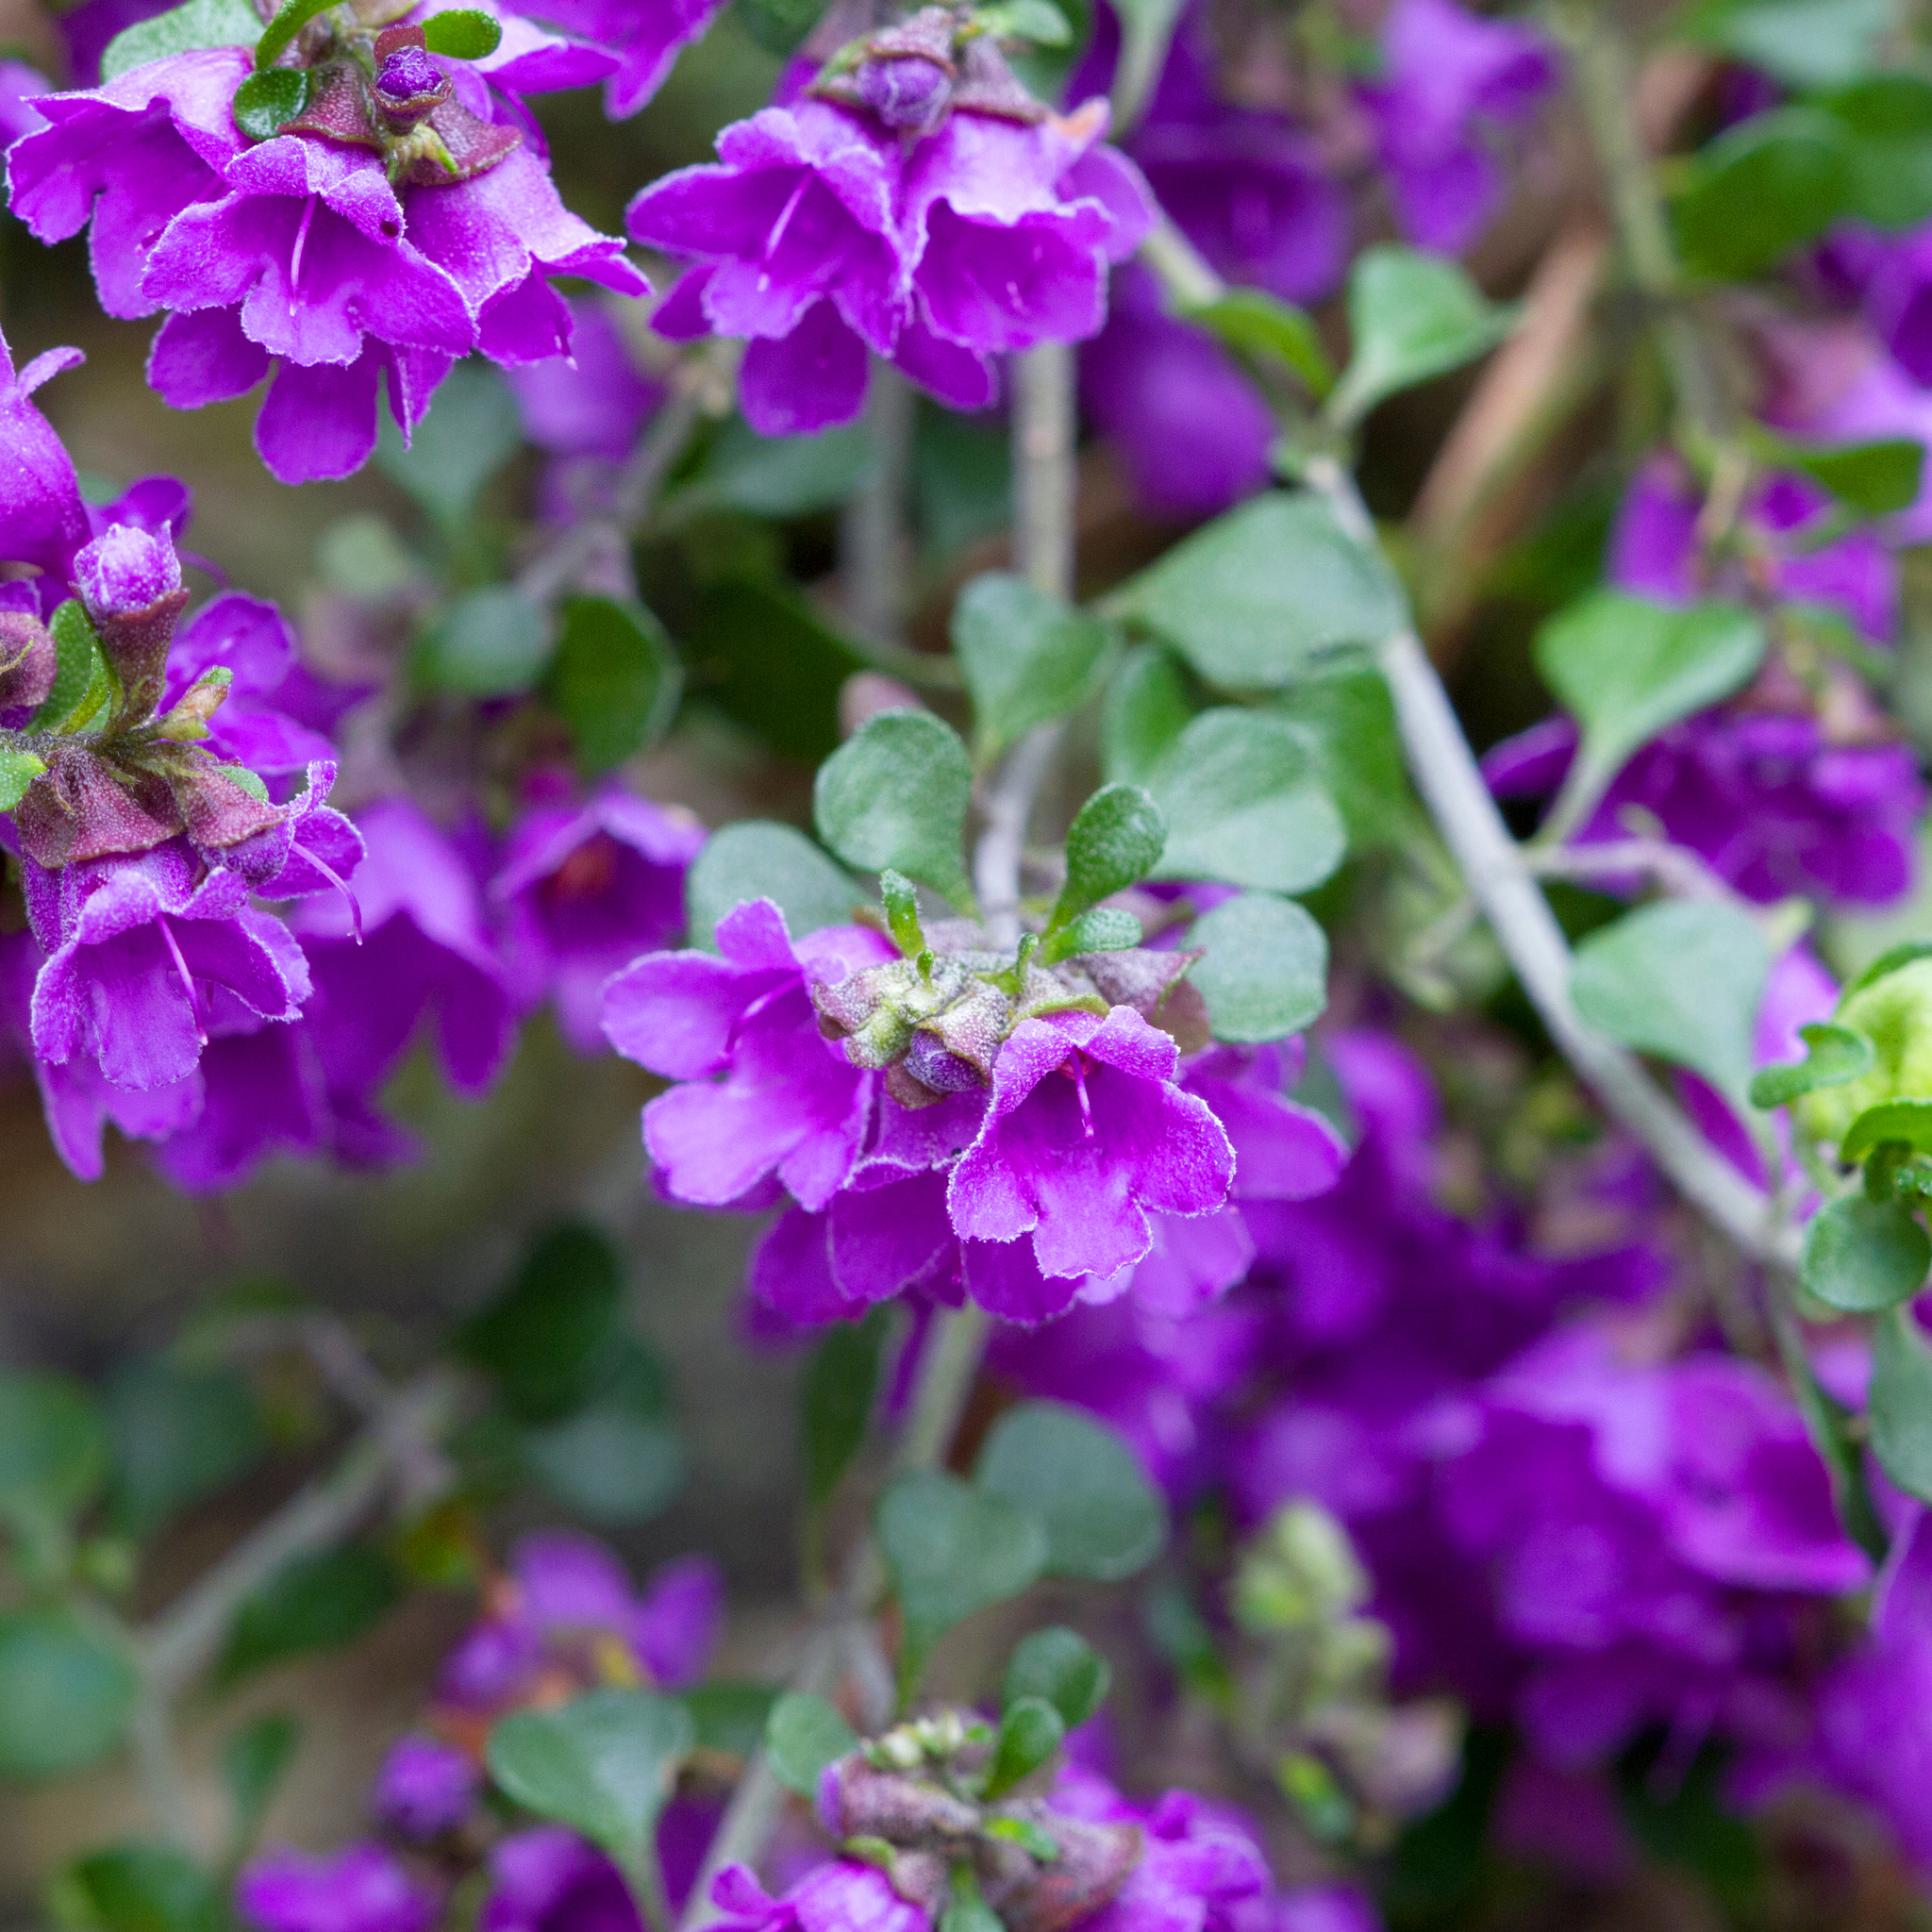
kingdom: Plantae
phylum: Tracheophyta
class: Magnoliopsida
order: Lamiales
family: Lamiaceae
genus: Prostanthera
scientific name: Prostanthera rotundifolia
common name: Round-leaf mintbush
